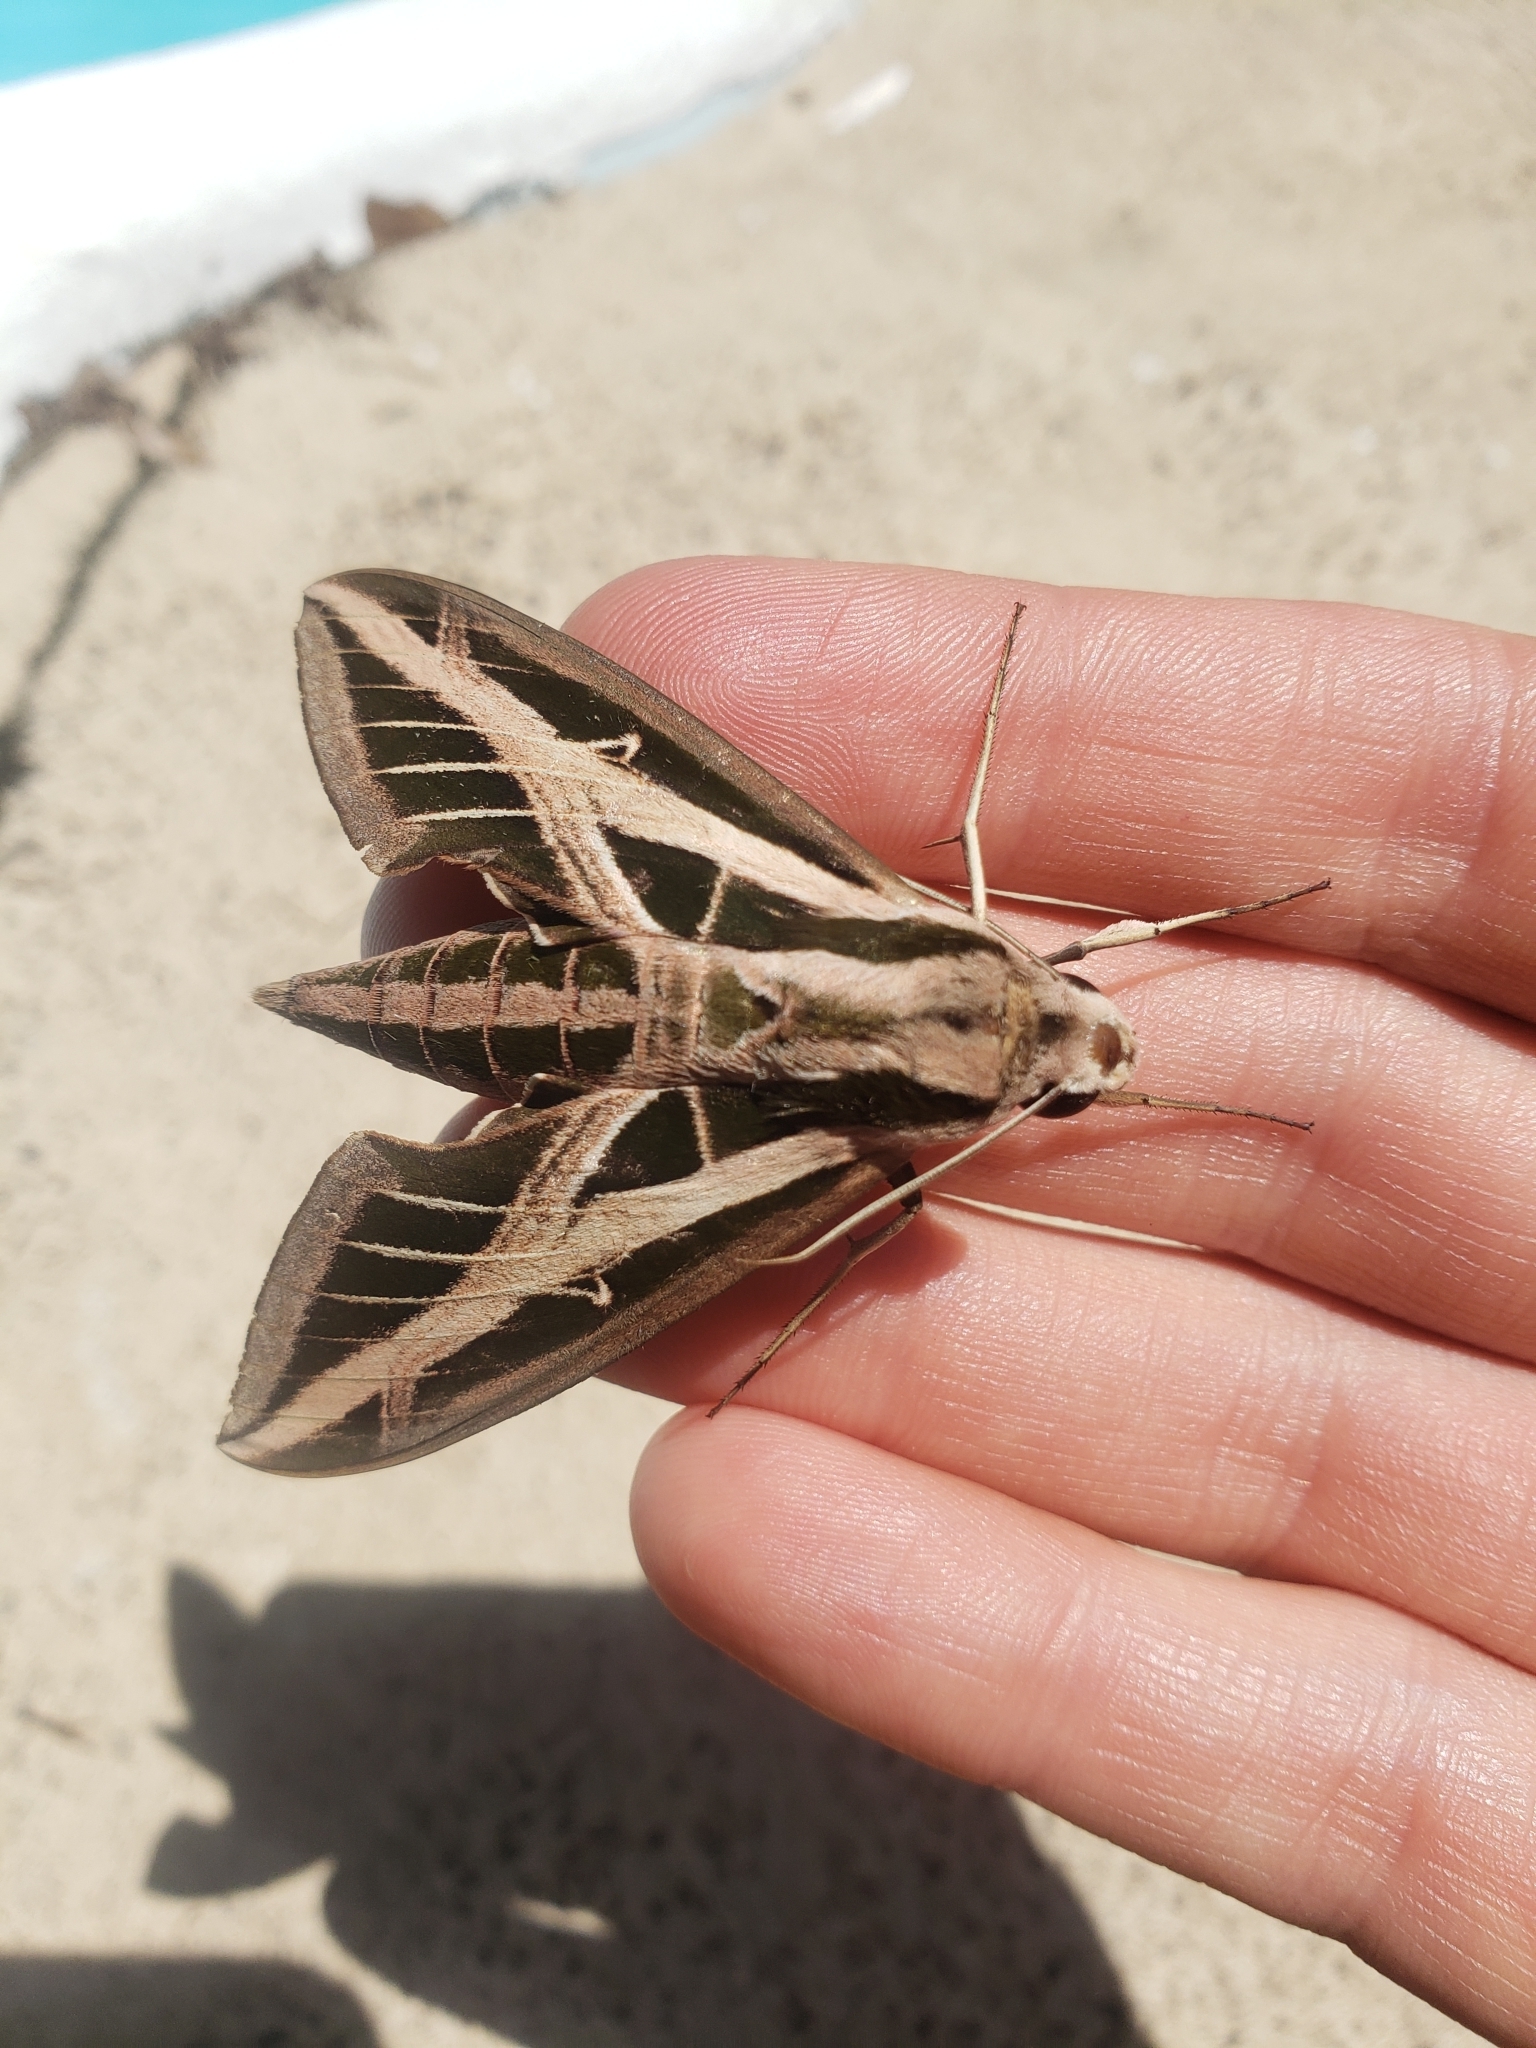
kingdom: Animalia
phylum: Arthropoda
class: Insecta
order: Lepidoptera
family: Sphingidae
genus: Eumorpha
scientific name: Eumorpha fasciatus
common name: Banded sphinx
